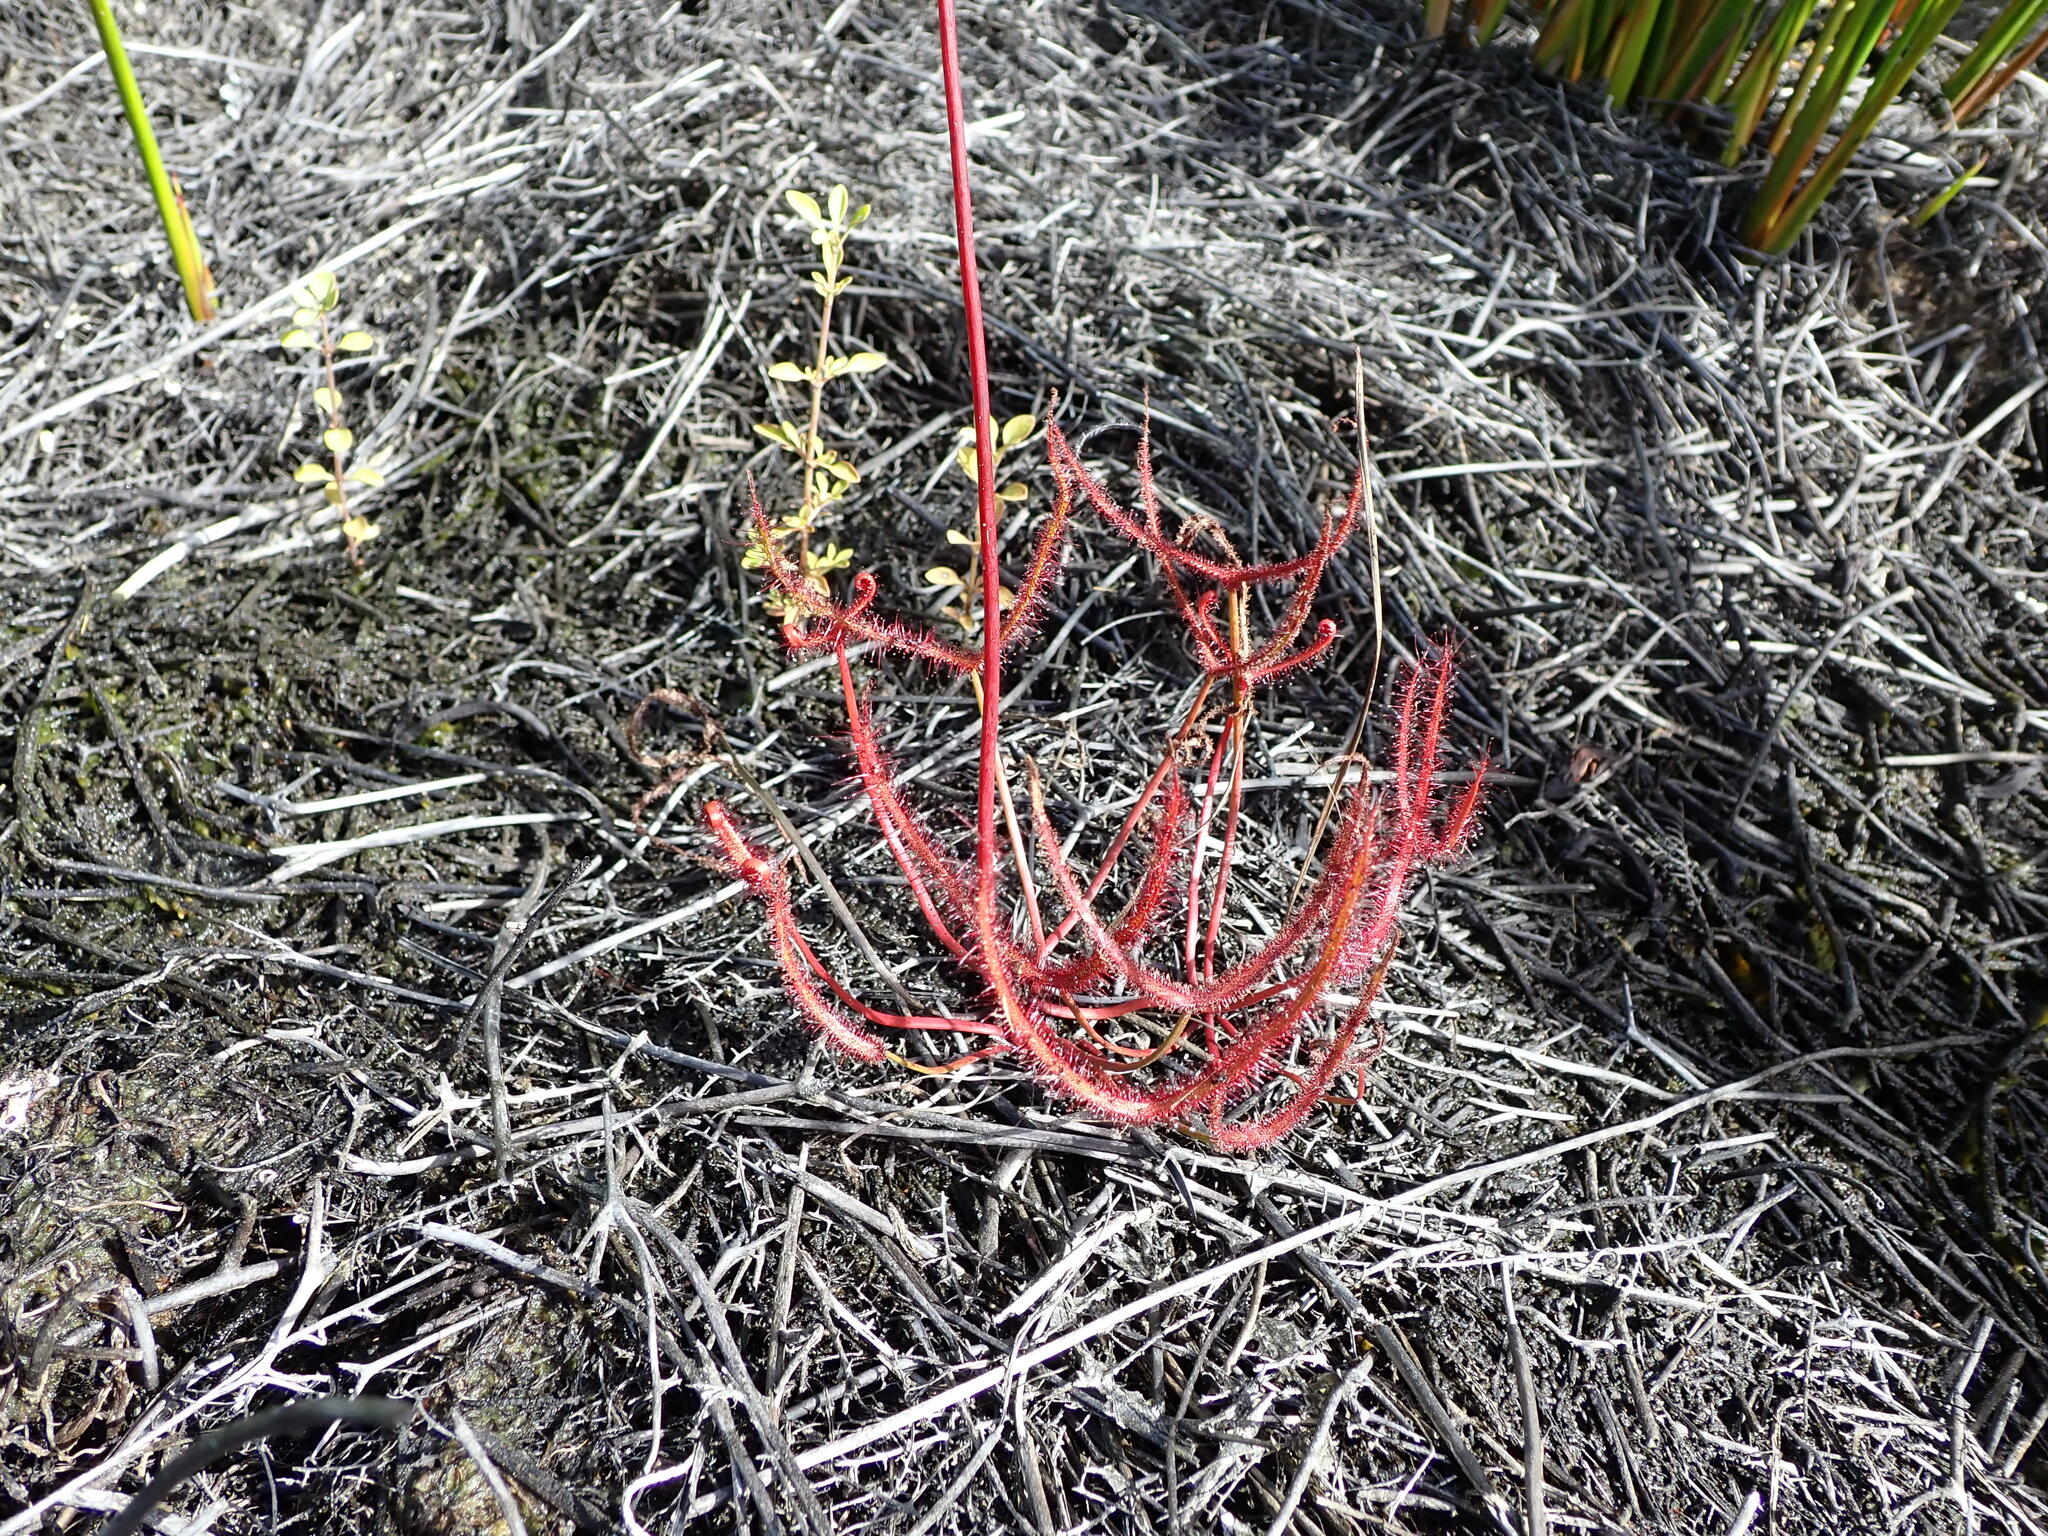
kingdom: Plantae
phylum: Tracheophyta
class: Magnoliopsida
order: Caryophyllales
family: Droseraceae
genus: Drosera
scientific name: Drosera binata
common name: Forked sundew
